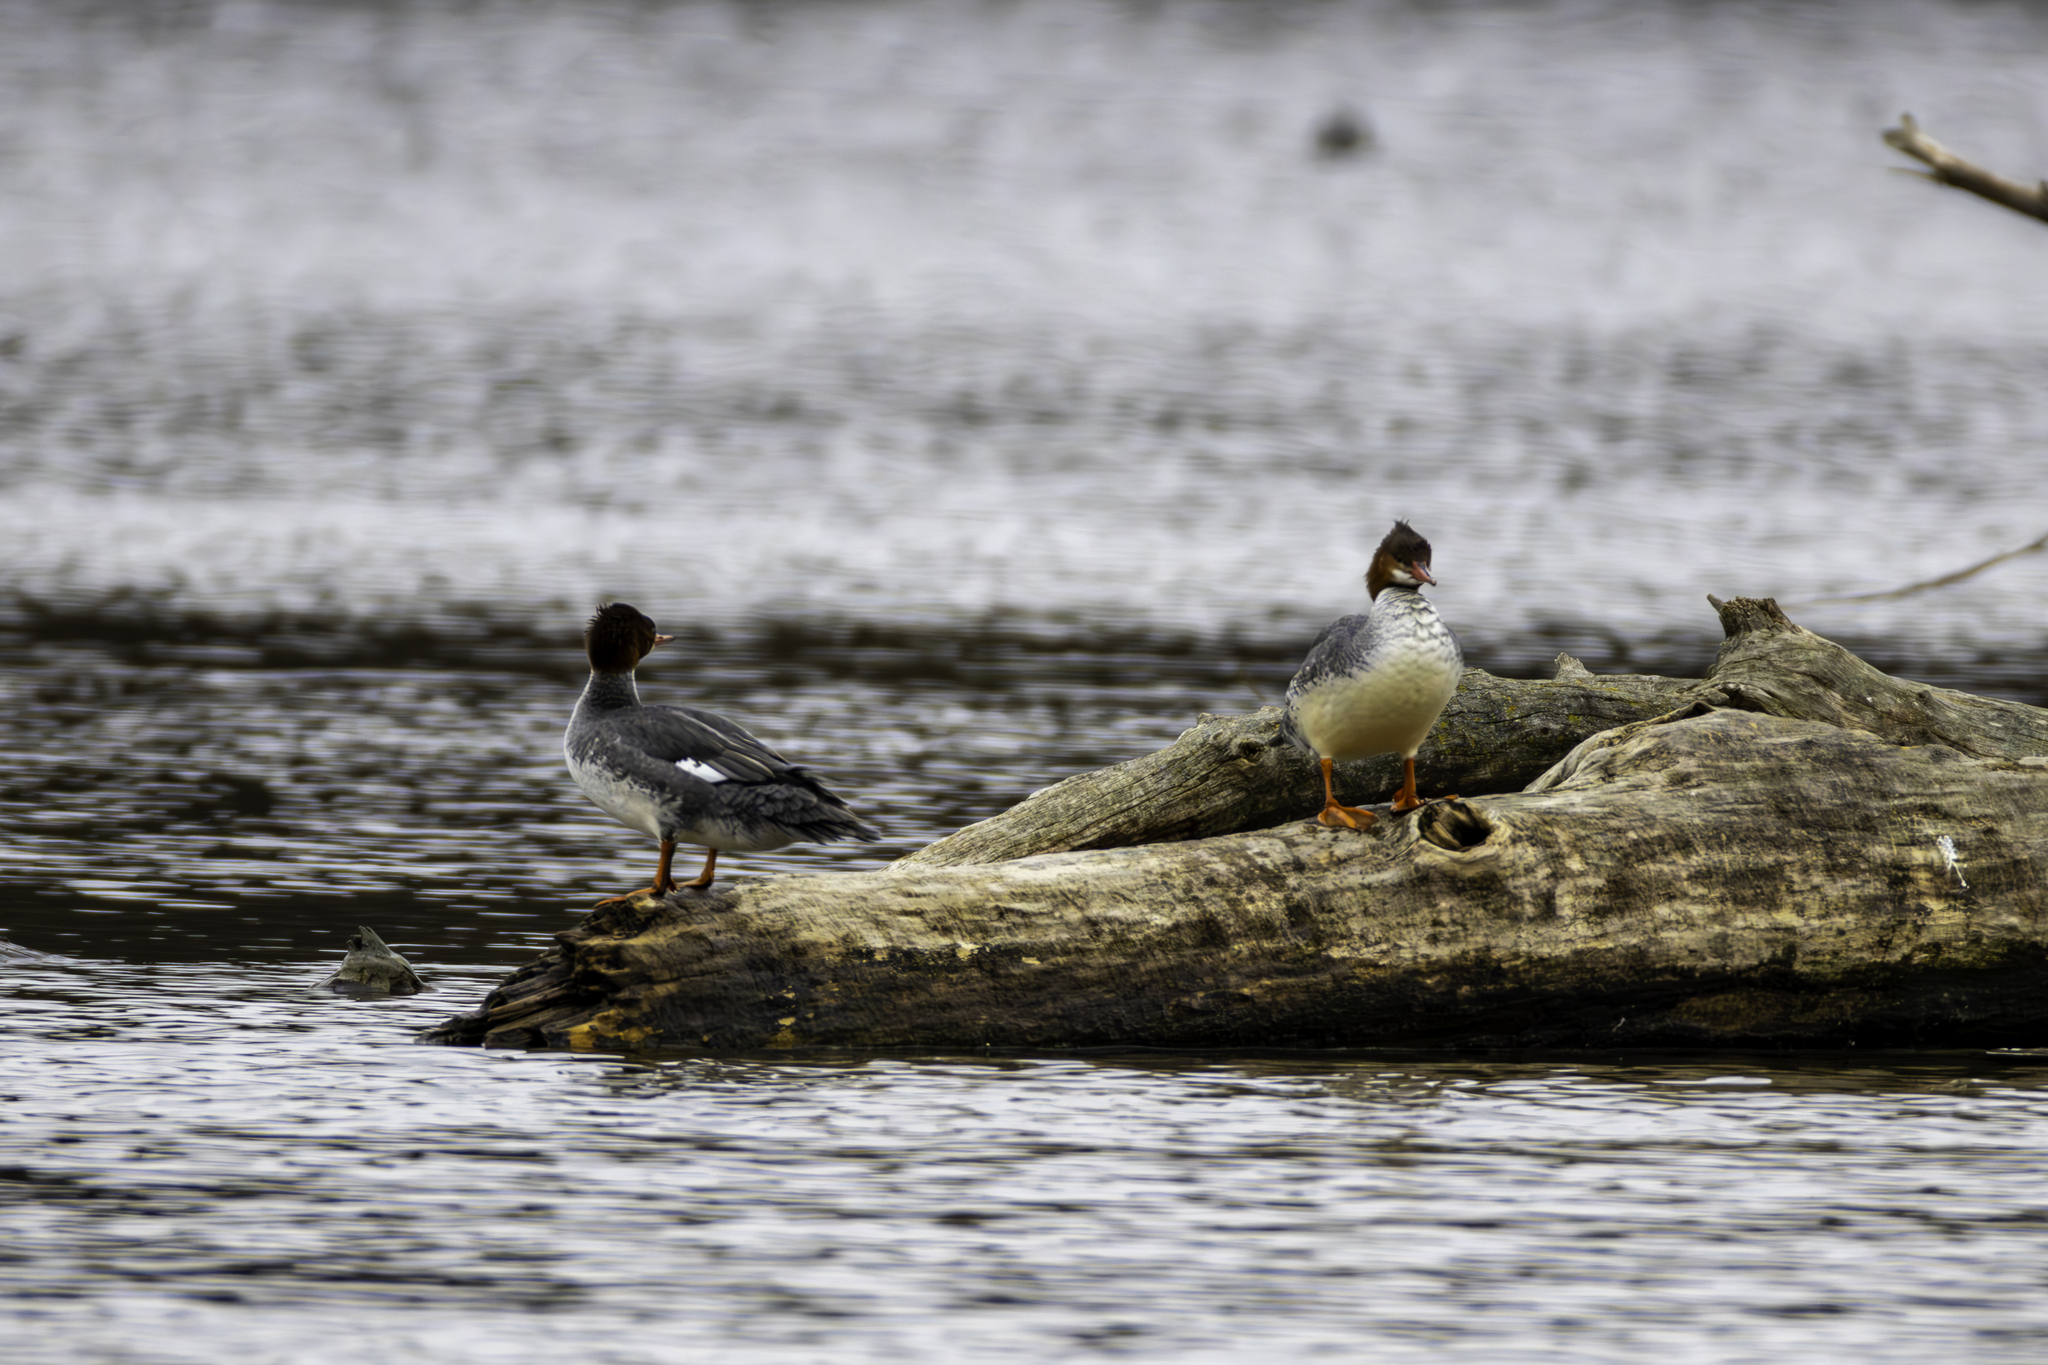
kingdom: Animalia
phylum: Chordata
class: Aves
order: Anseriformes
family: Anatidae
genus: Mergus
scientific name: Mergus merganser
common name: Common merganser
